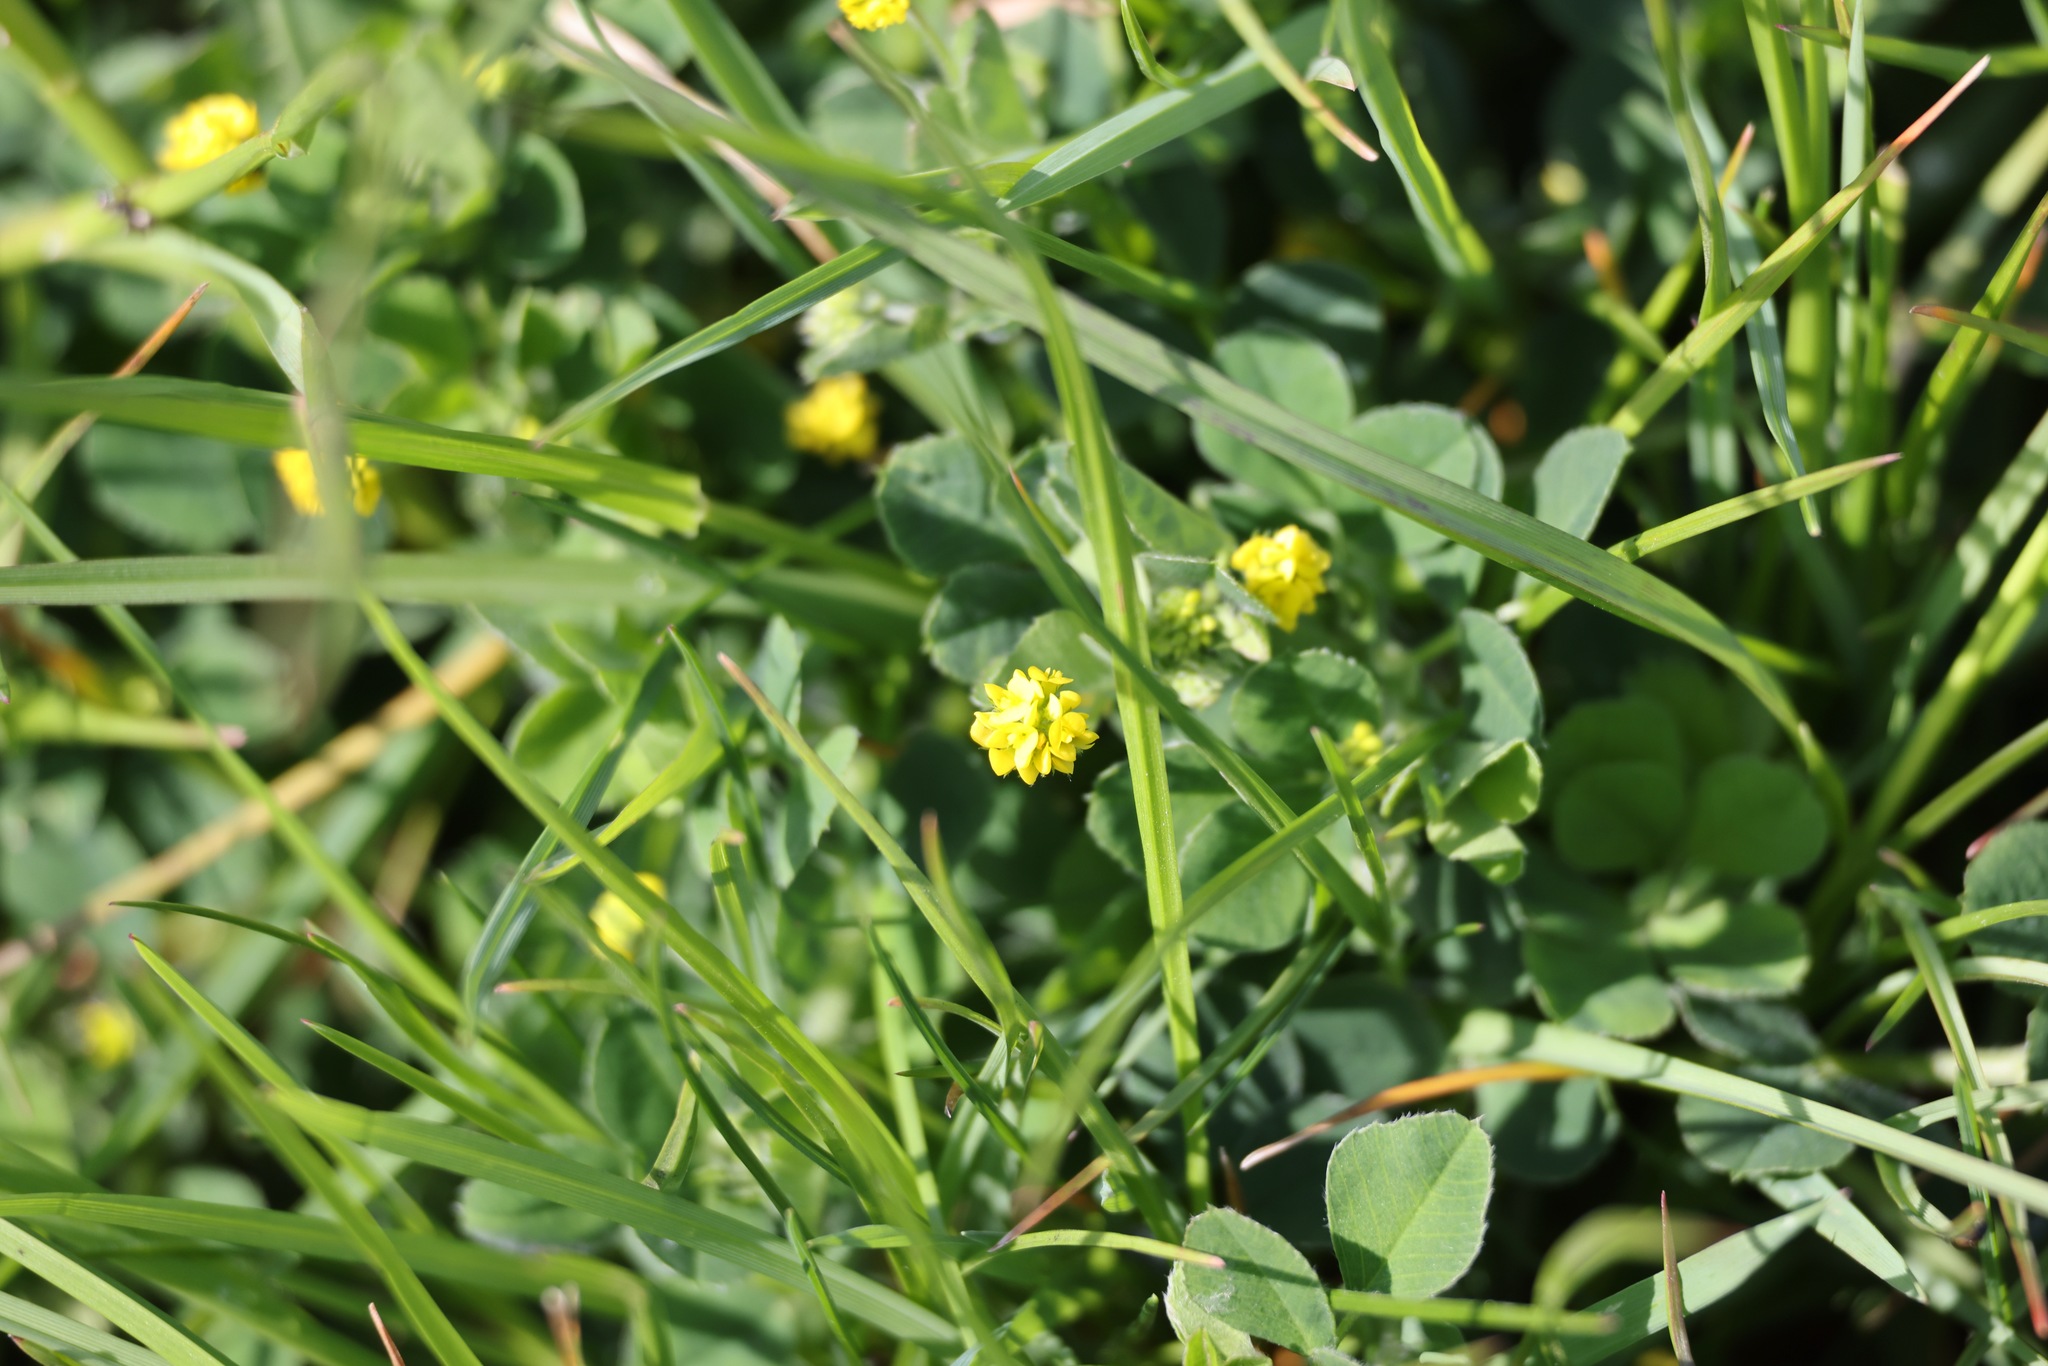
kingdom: Plantae
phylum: Tracheophyta
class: Magnoliopsida
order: Fabales
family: Fabaceae
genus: Medicago
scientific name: Medicago lupulina
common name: Black medick
